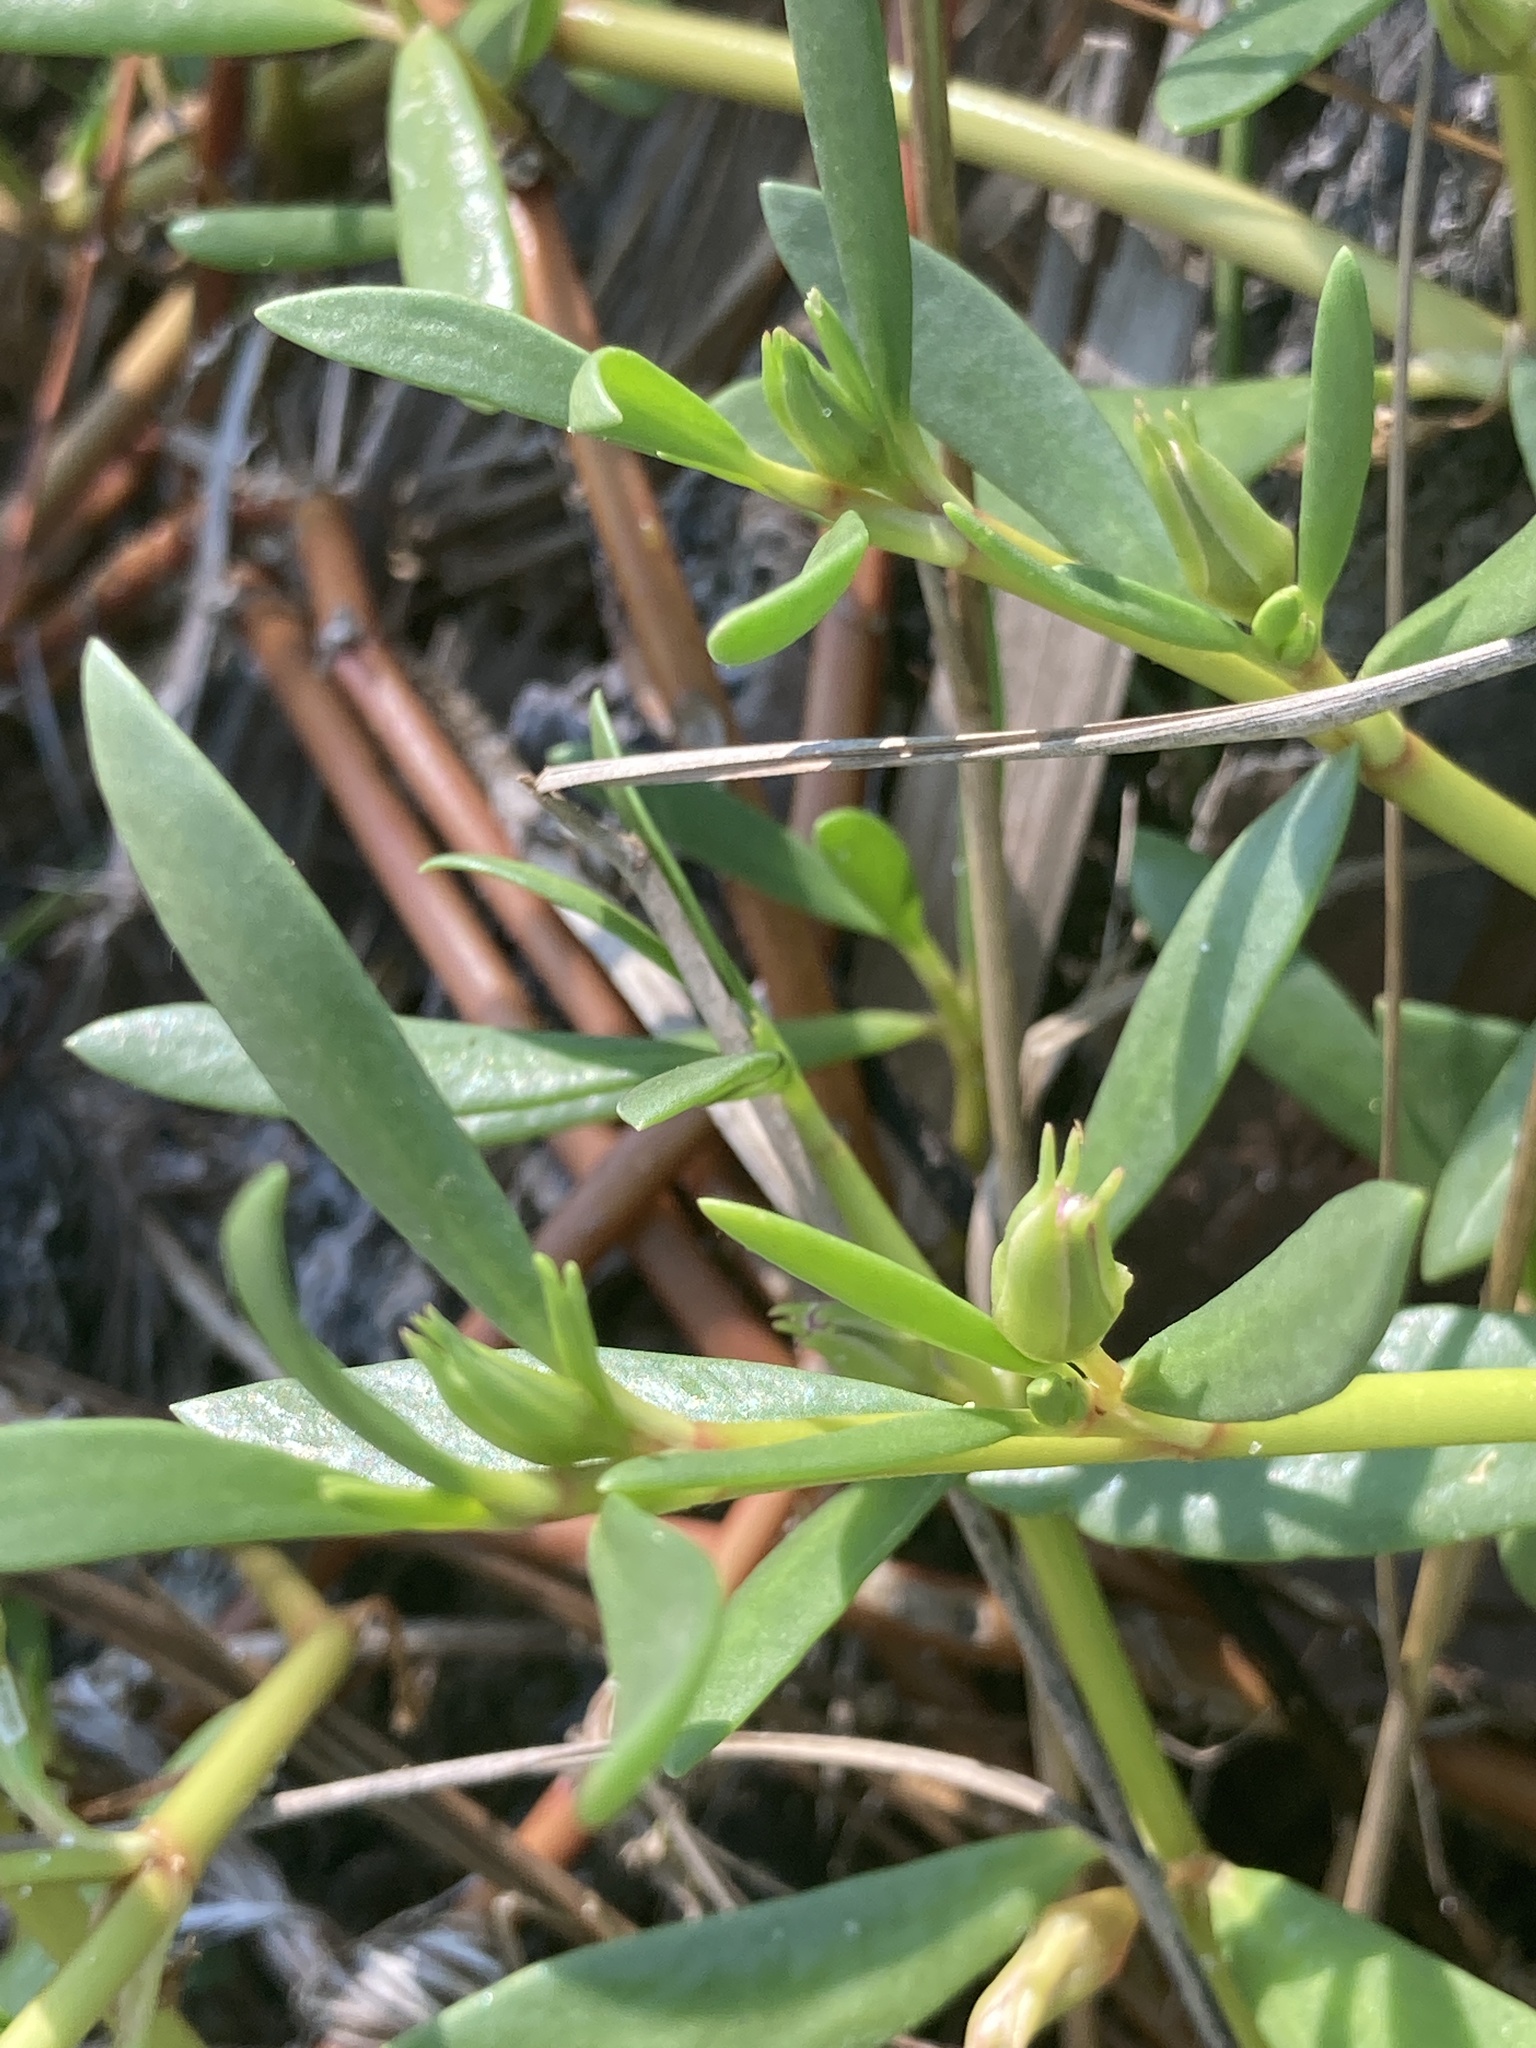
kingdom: Plantae
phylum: Tracheophyta
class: Magnoliopsida
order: Caryophyllales
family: Aizoaceae
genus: Sesuvium
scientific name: Sesuvium portulacastrum
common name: Sea-purslane
